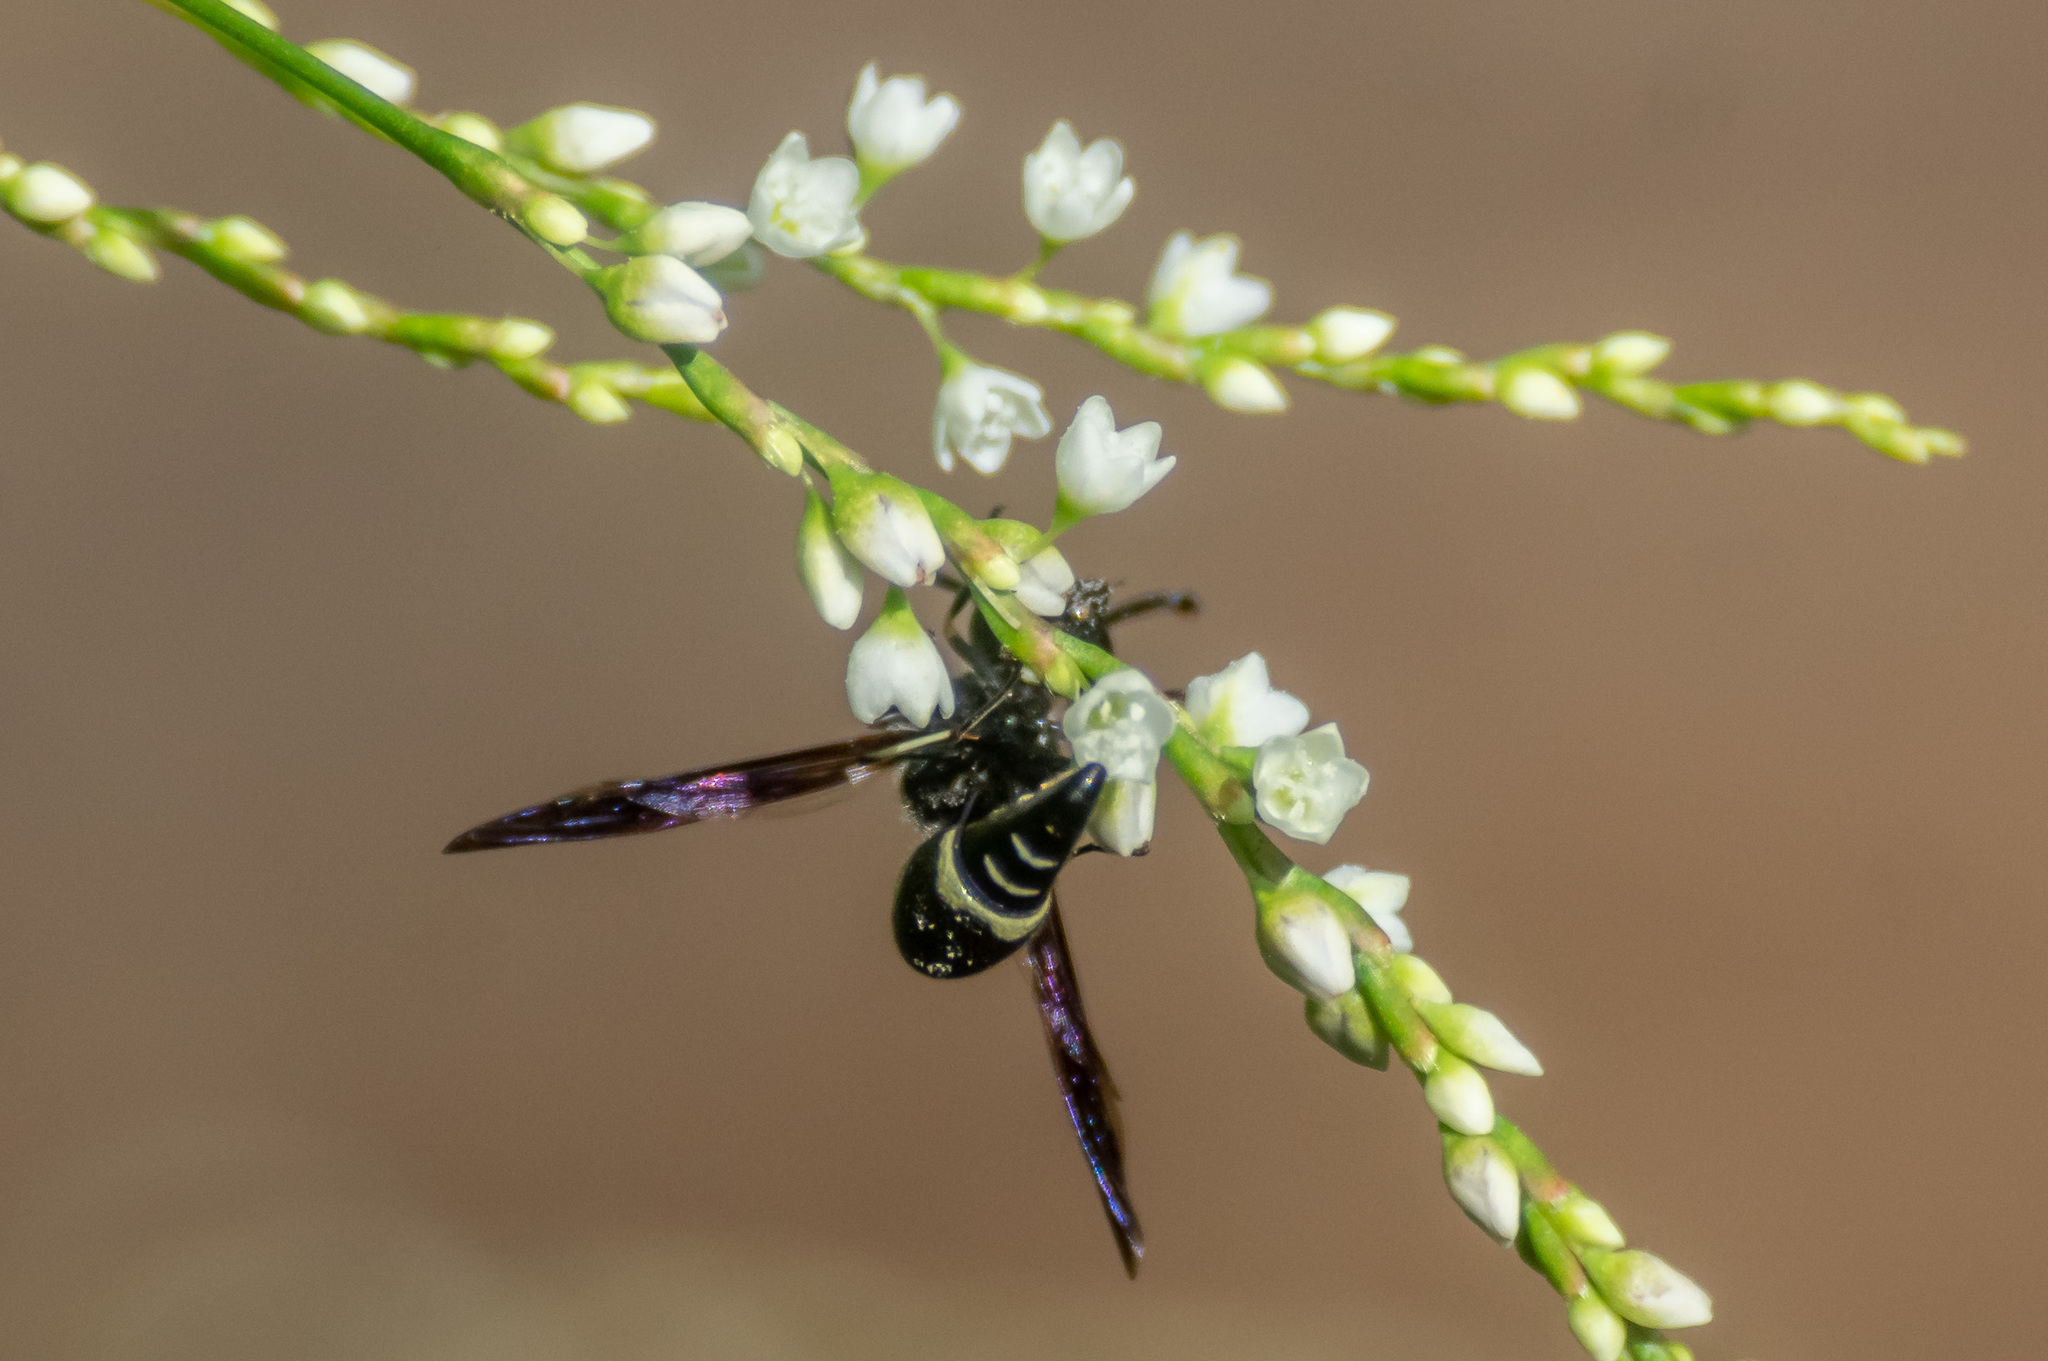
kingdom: Animalia
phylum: Arthropoda
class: Insecta
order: Hymenoptera
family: Vespidae
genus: Eumenes
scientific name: Eumenes fraternus
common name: Fraternal potter wasp
